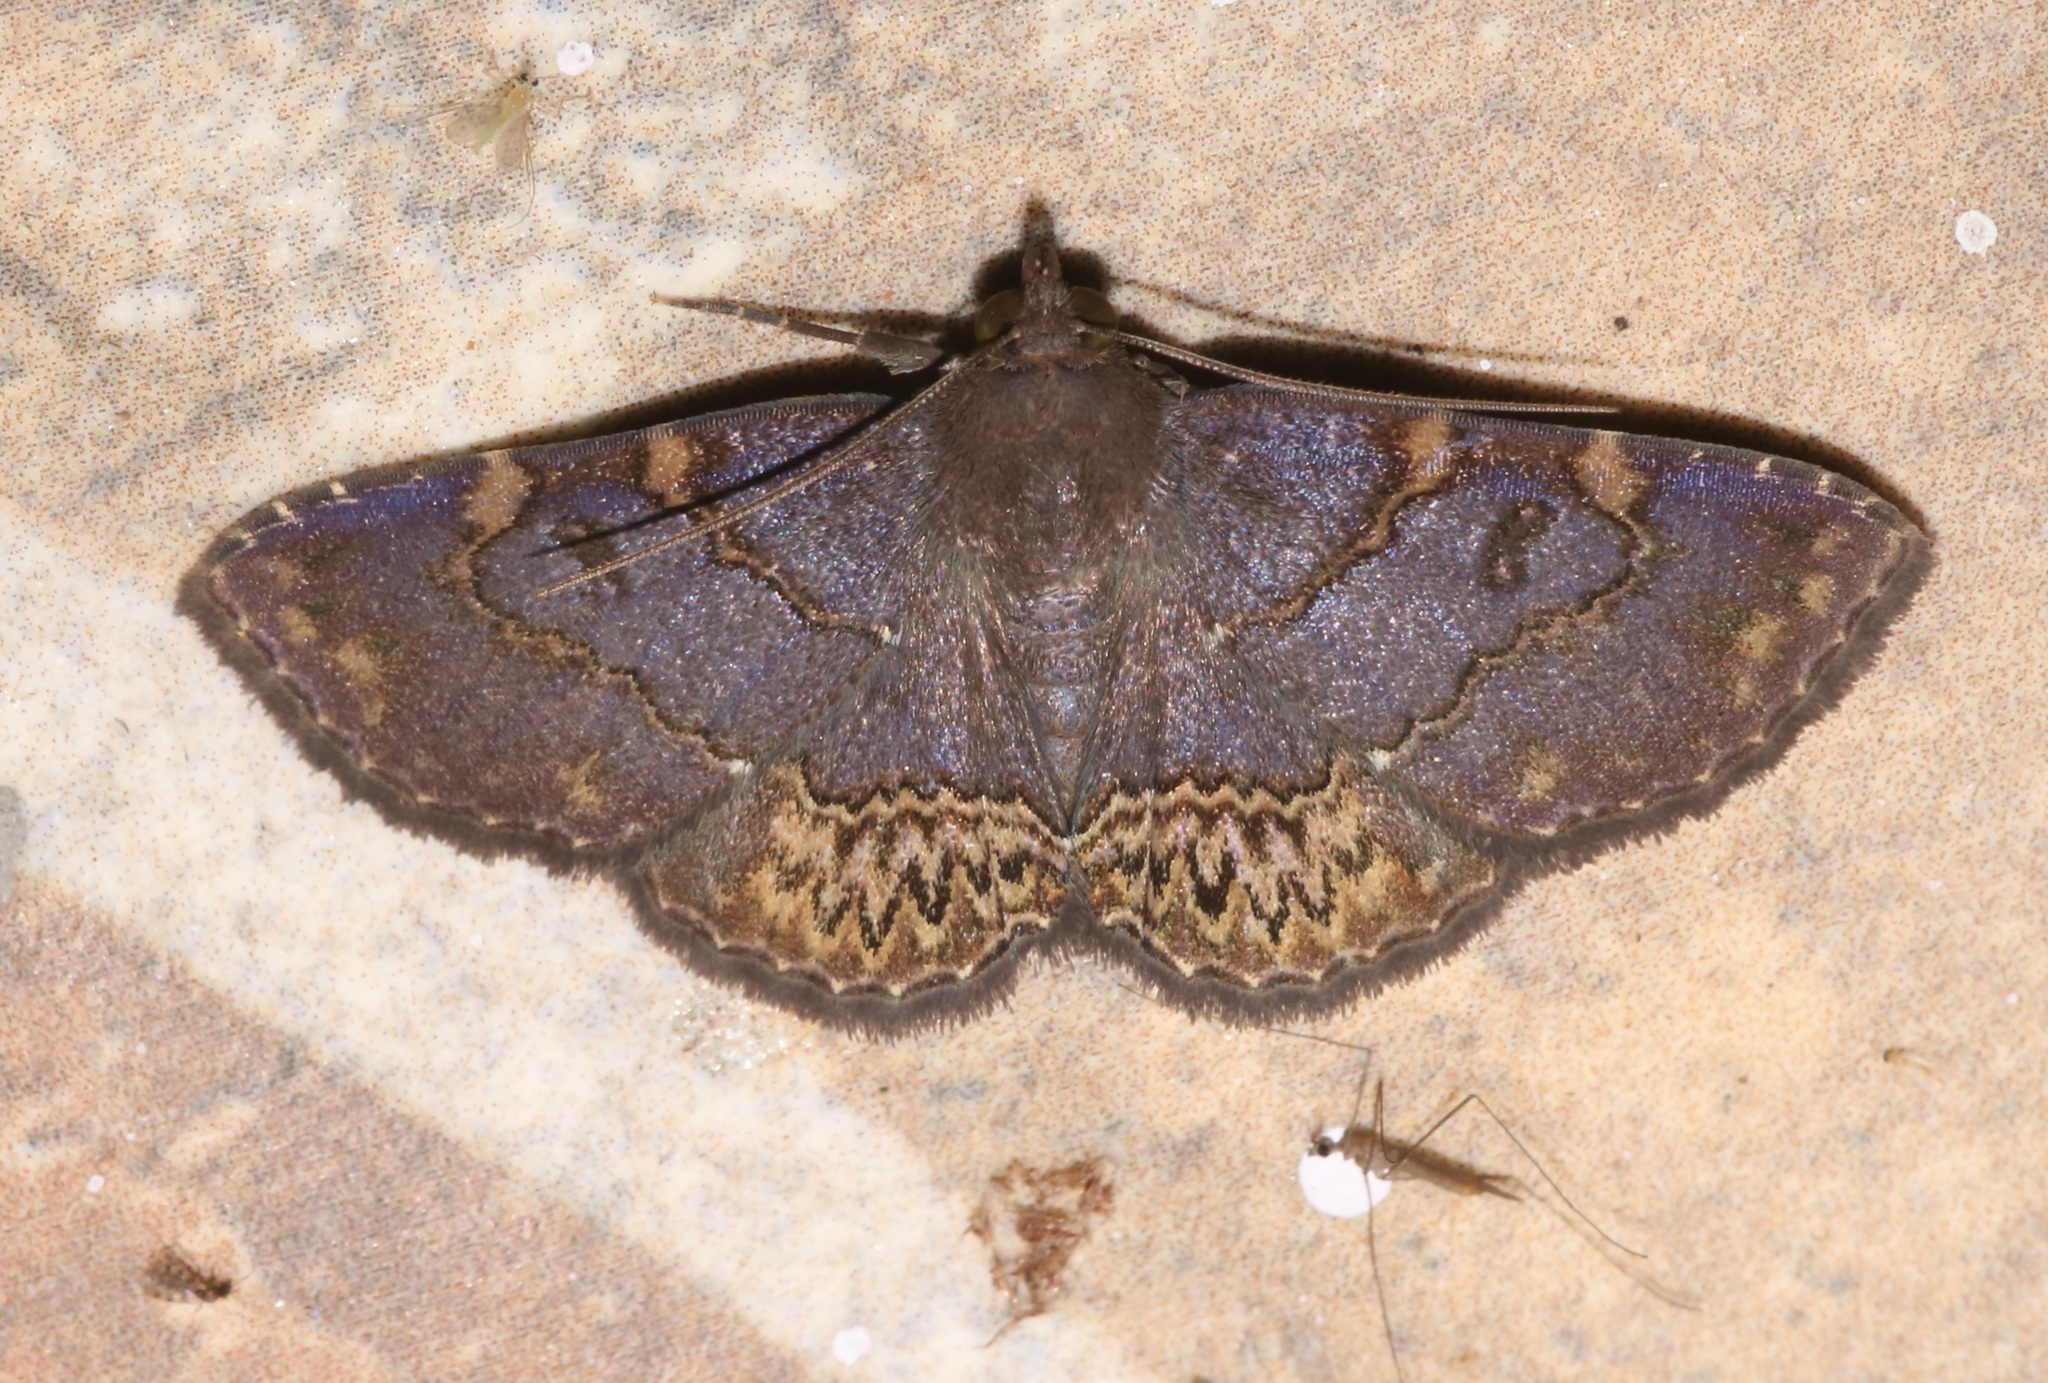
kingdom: Animalia
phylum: Arthropoda
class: Insecta
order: Lepidoptera
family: Erebidae
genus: Antiblemma
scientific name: Antiblemma abstrusa
